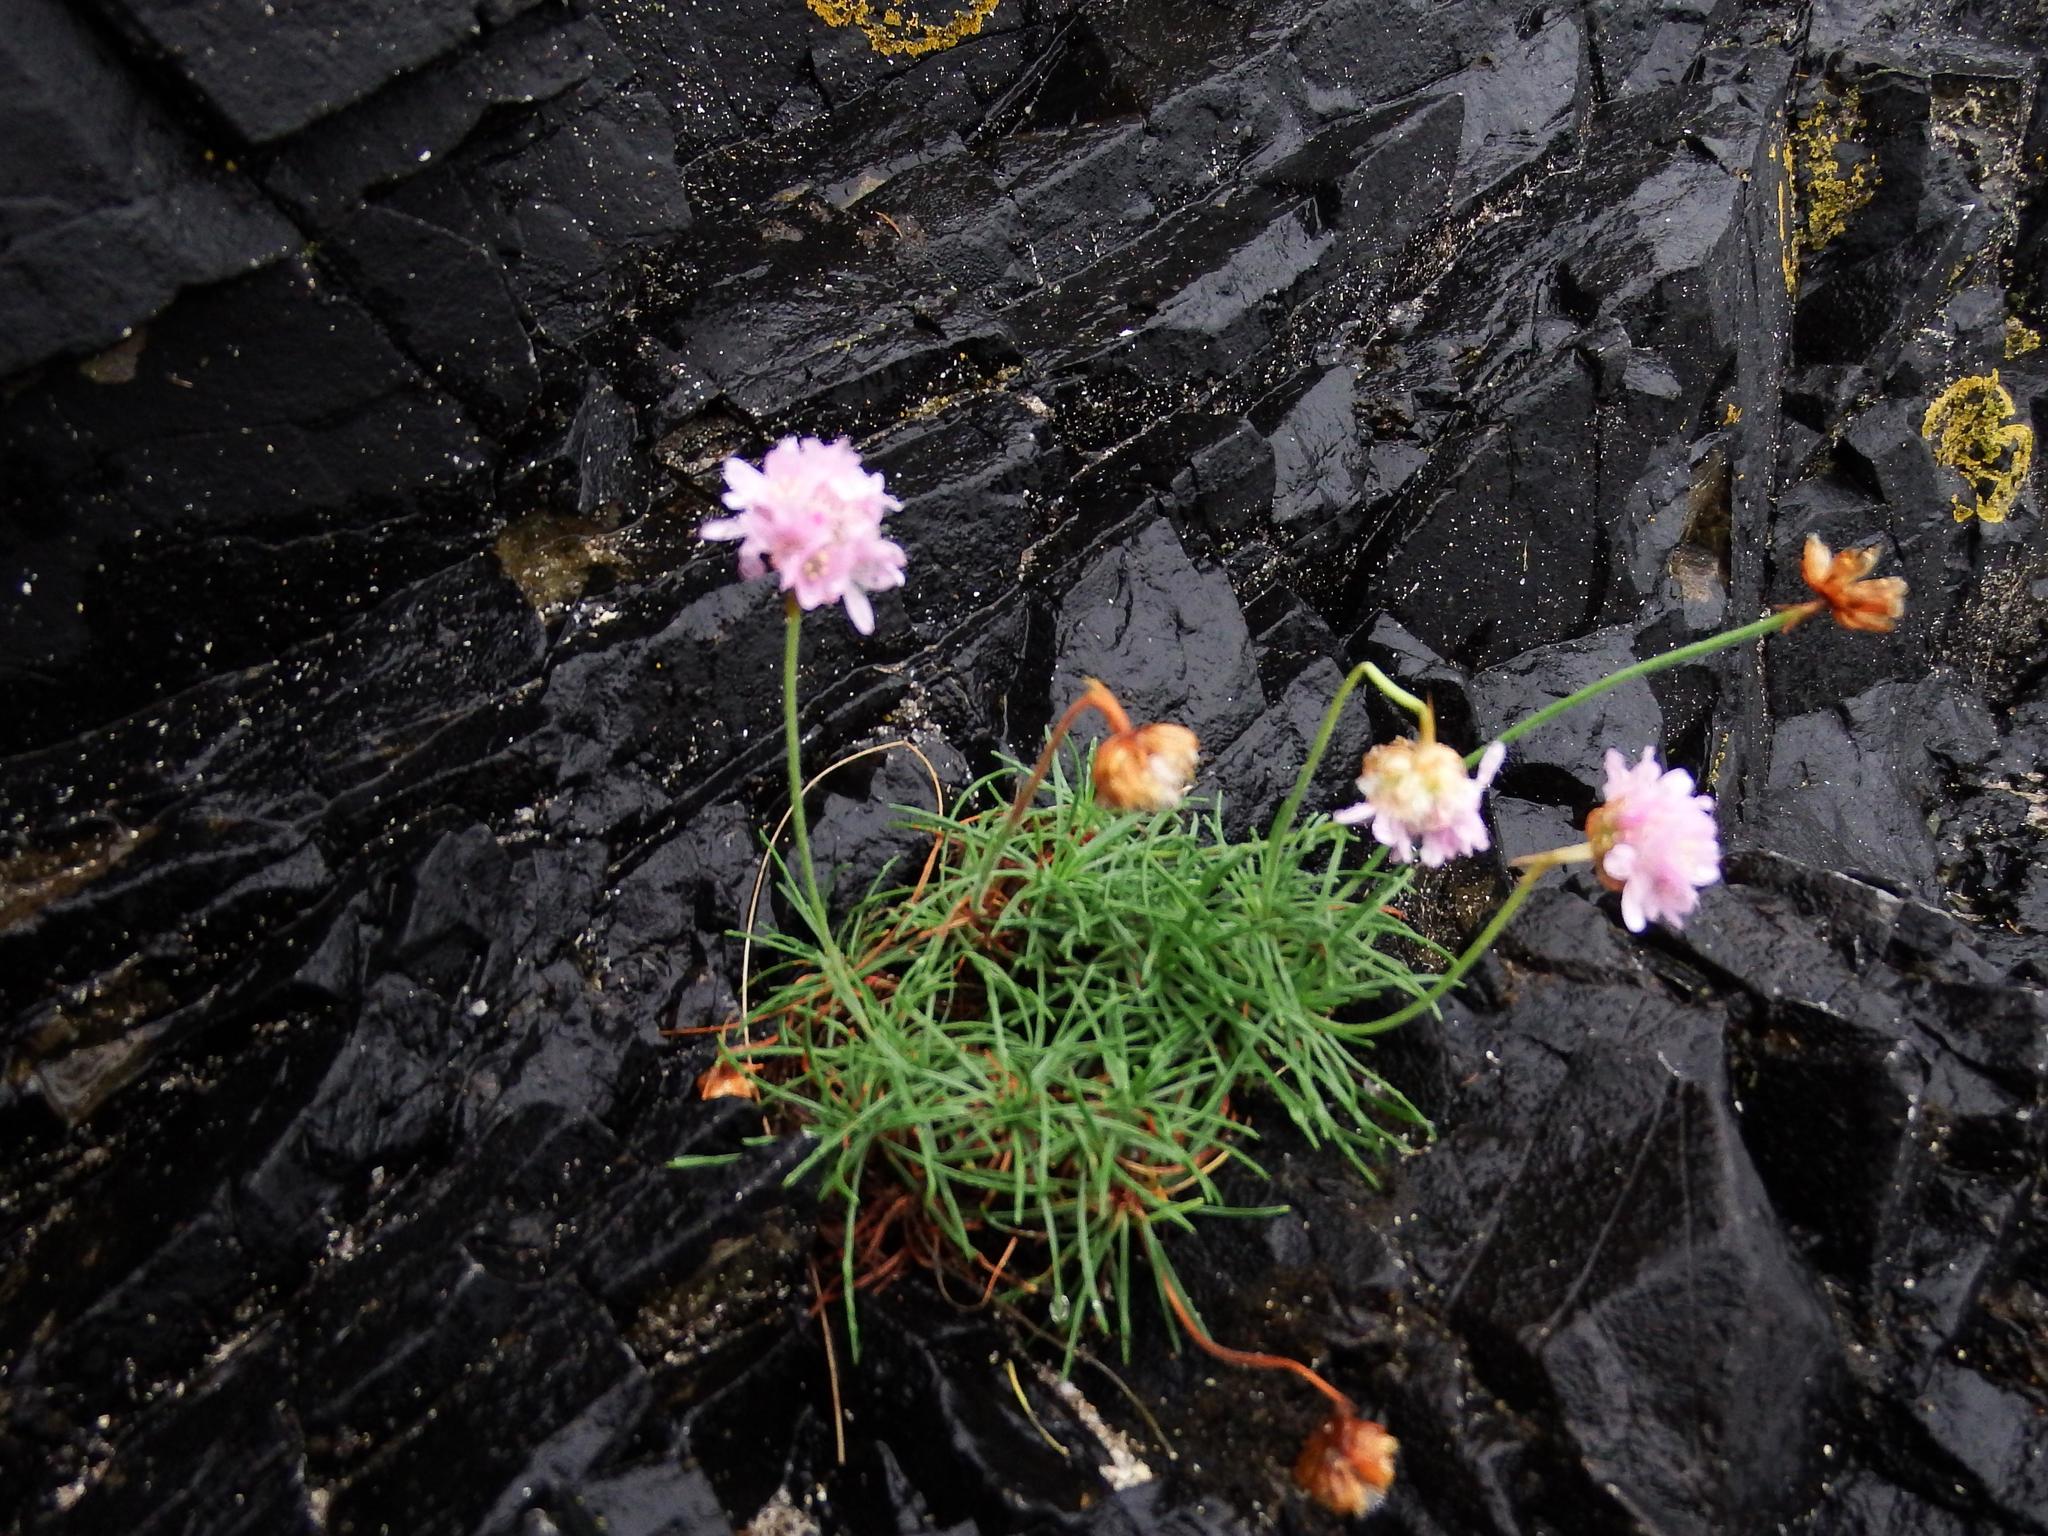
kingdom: Plantae
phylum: Tracheophyta
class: Magnoliopsida
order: Caryophyllales
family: Plumbaginaceae
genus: Armeria
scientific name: Armeria maritima
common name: Thrift
